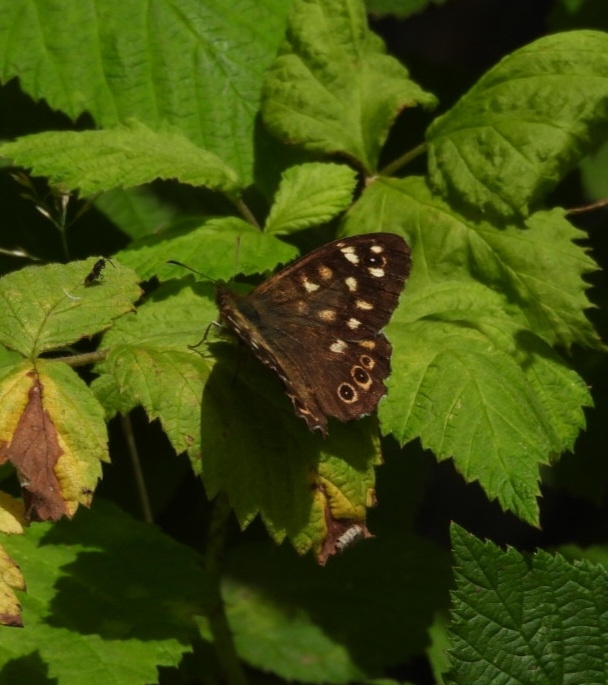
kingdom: Animalia
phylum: Arthropoda
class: Insecta
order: Lepidoptera
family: Nymphalidae
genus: Pararge
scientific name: Pararge aegeria
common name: Speckled wood
